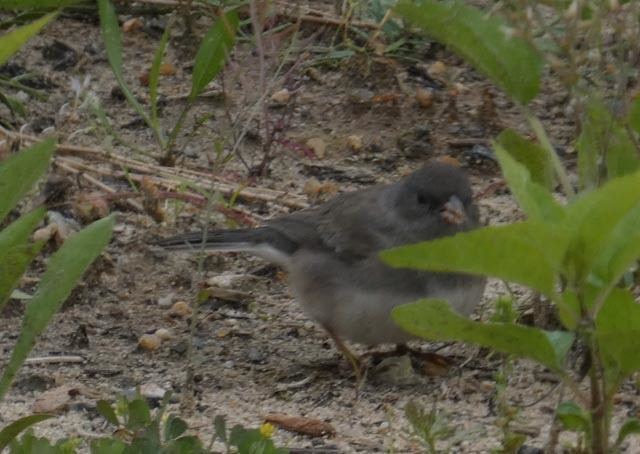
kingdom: Animalia
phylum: Chordata
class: Aves
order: Passeriformes
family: Passerellidae
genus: Junco
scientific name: Junco hyemalis
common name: Dark-eyed junco
